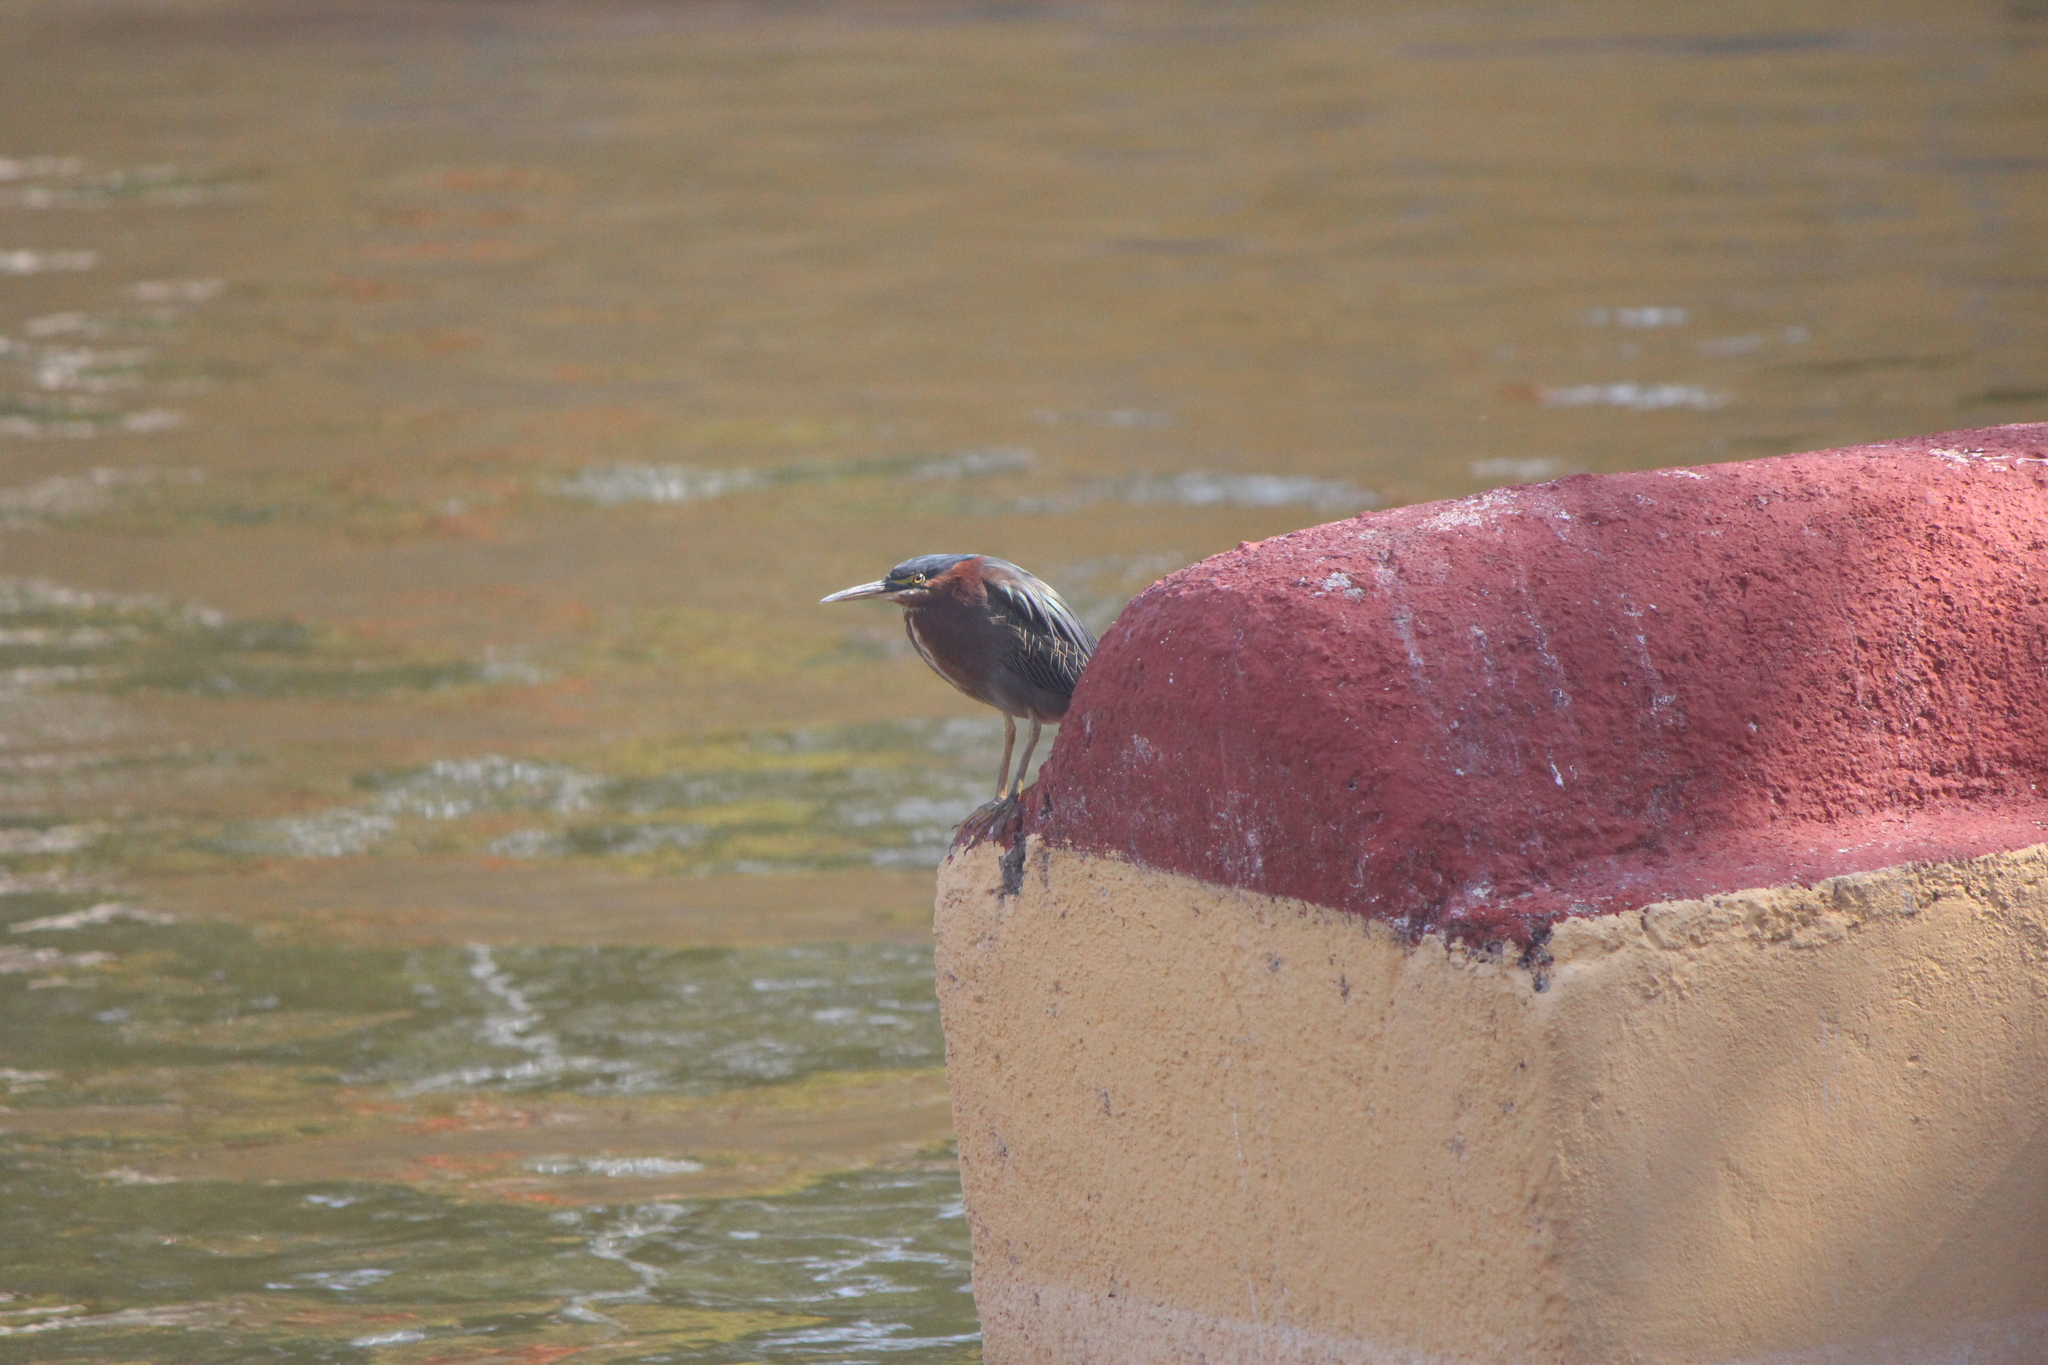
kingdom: Animalia
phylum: Chordata
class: Aves
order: Pelecaniformes
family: Ardeidae
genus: Butorides
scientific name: Butorides virescens
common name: Green heron
